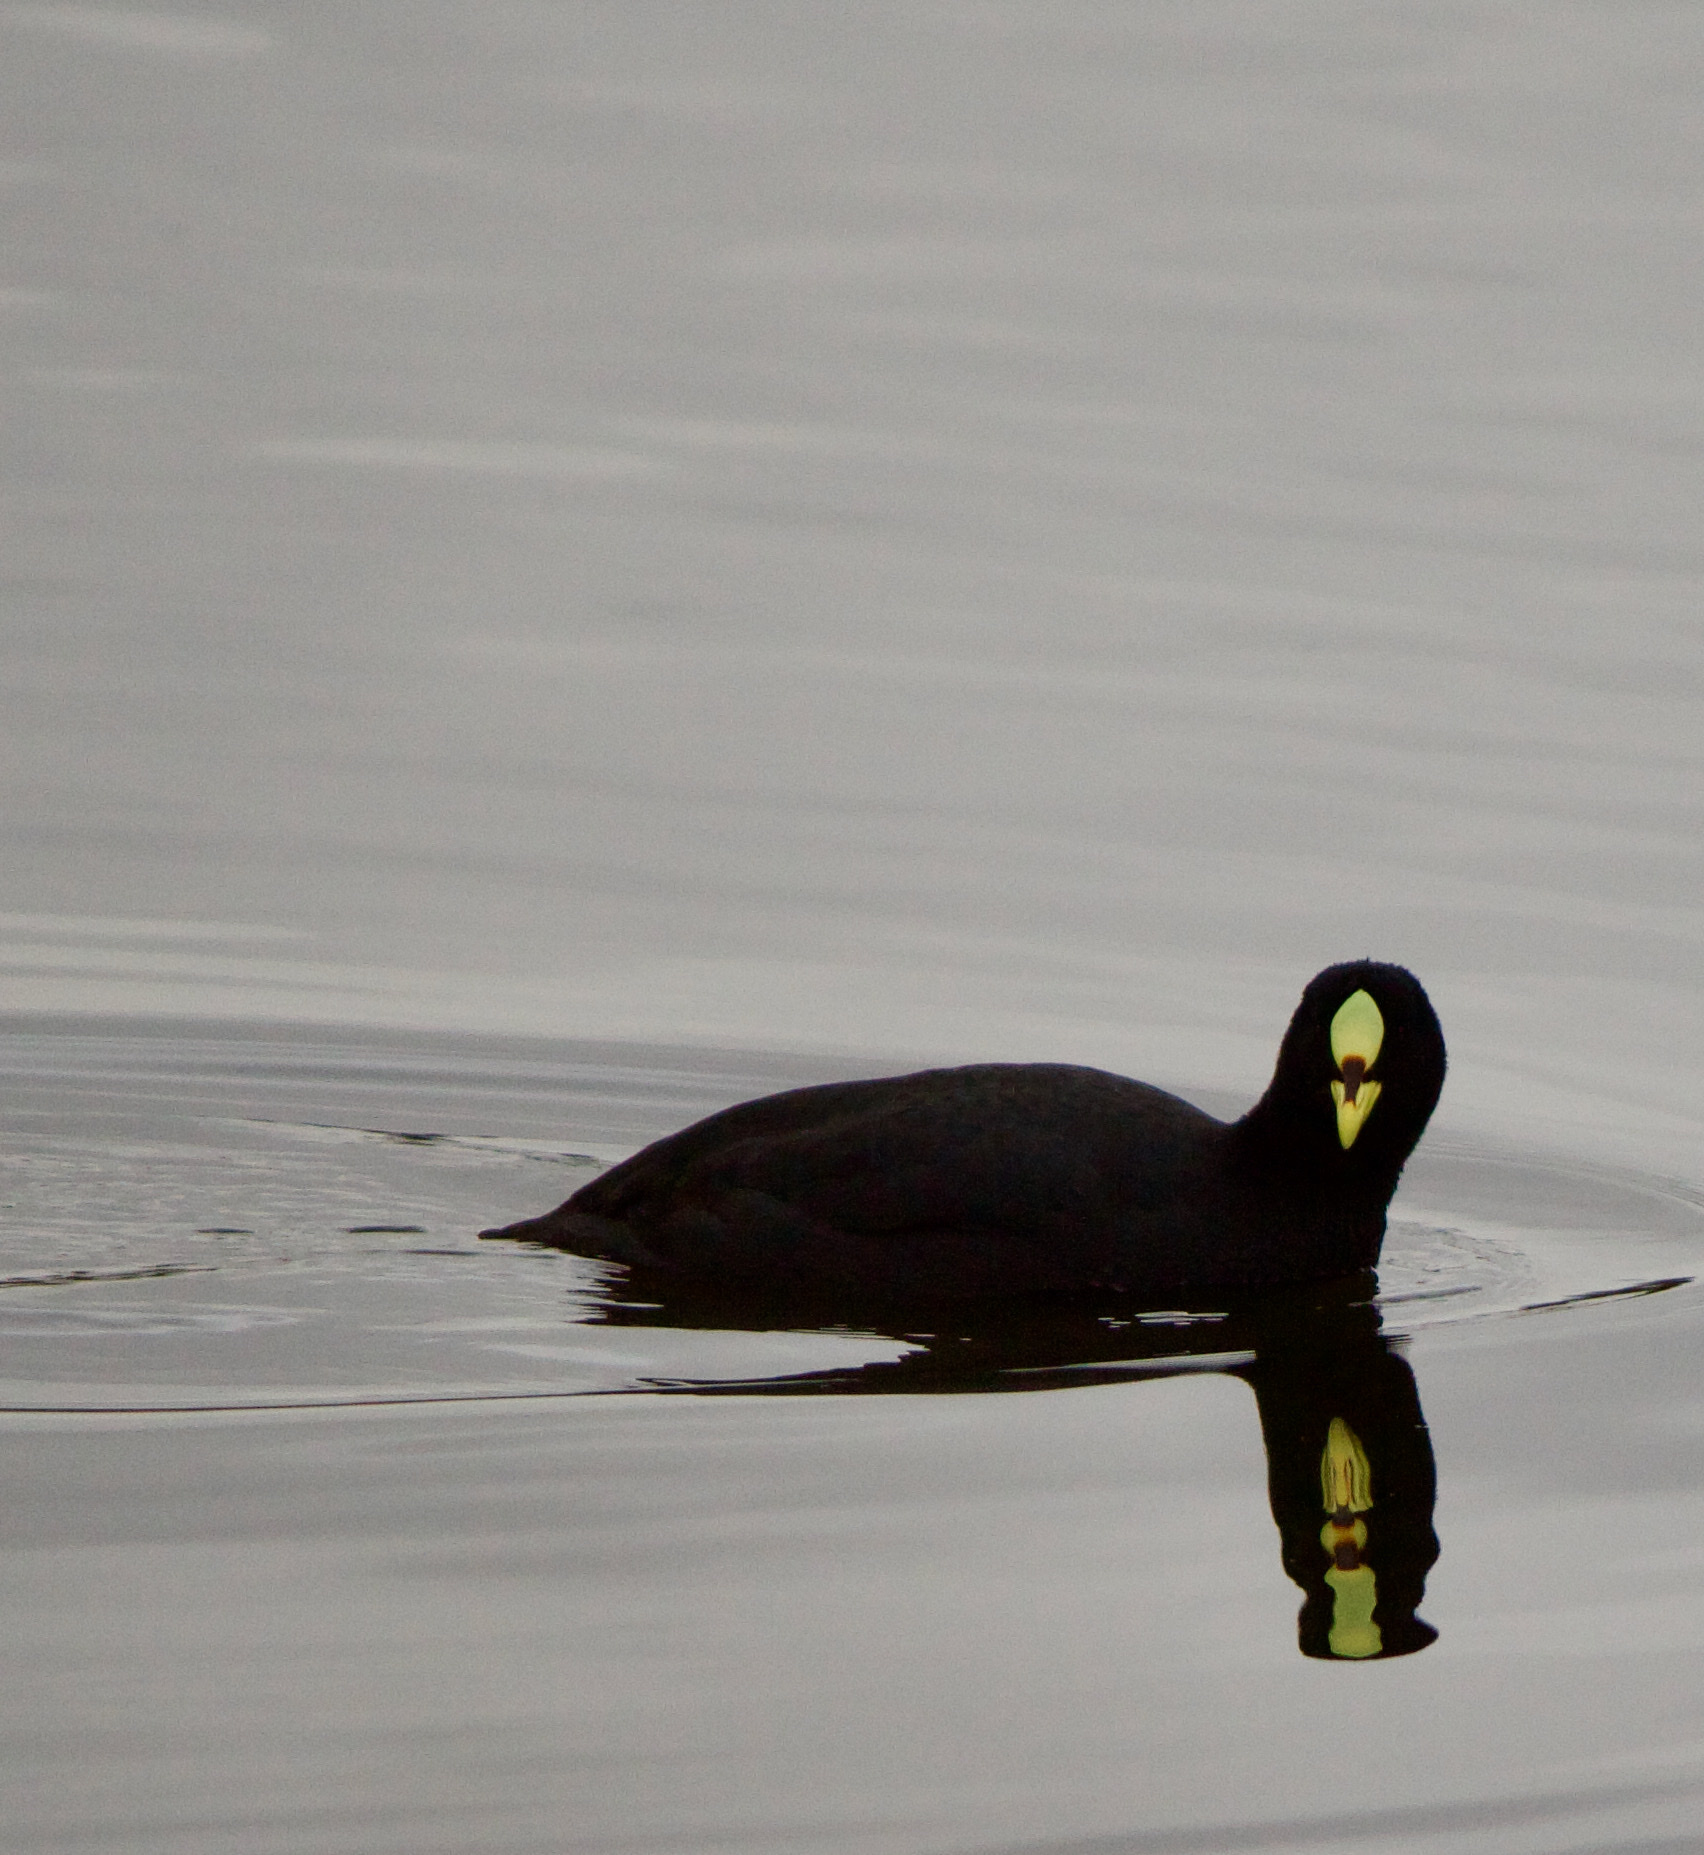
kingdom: Animalia
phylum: Chordata
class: Aves
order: Gruiformes
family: Rallidae
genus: Fulica
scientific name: Fulica armillata
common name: Red-gartered coot
